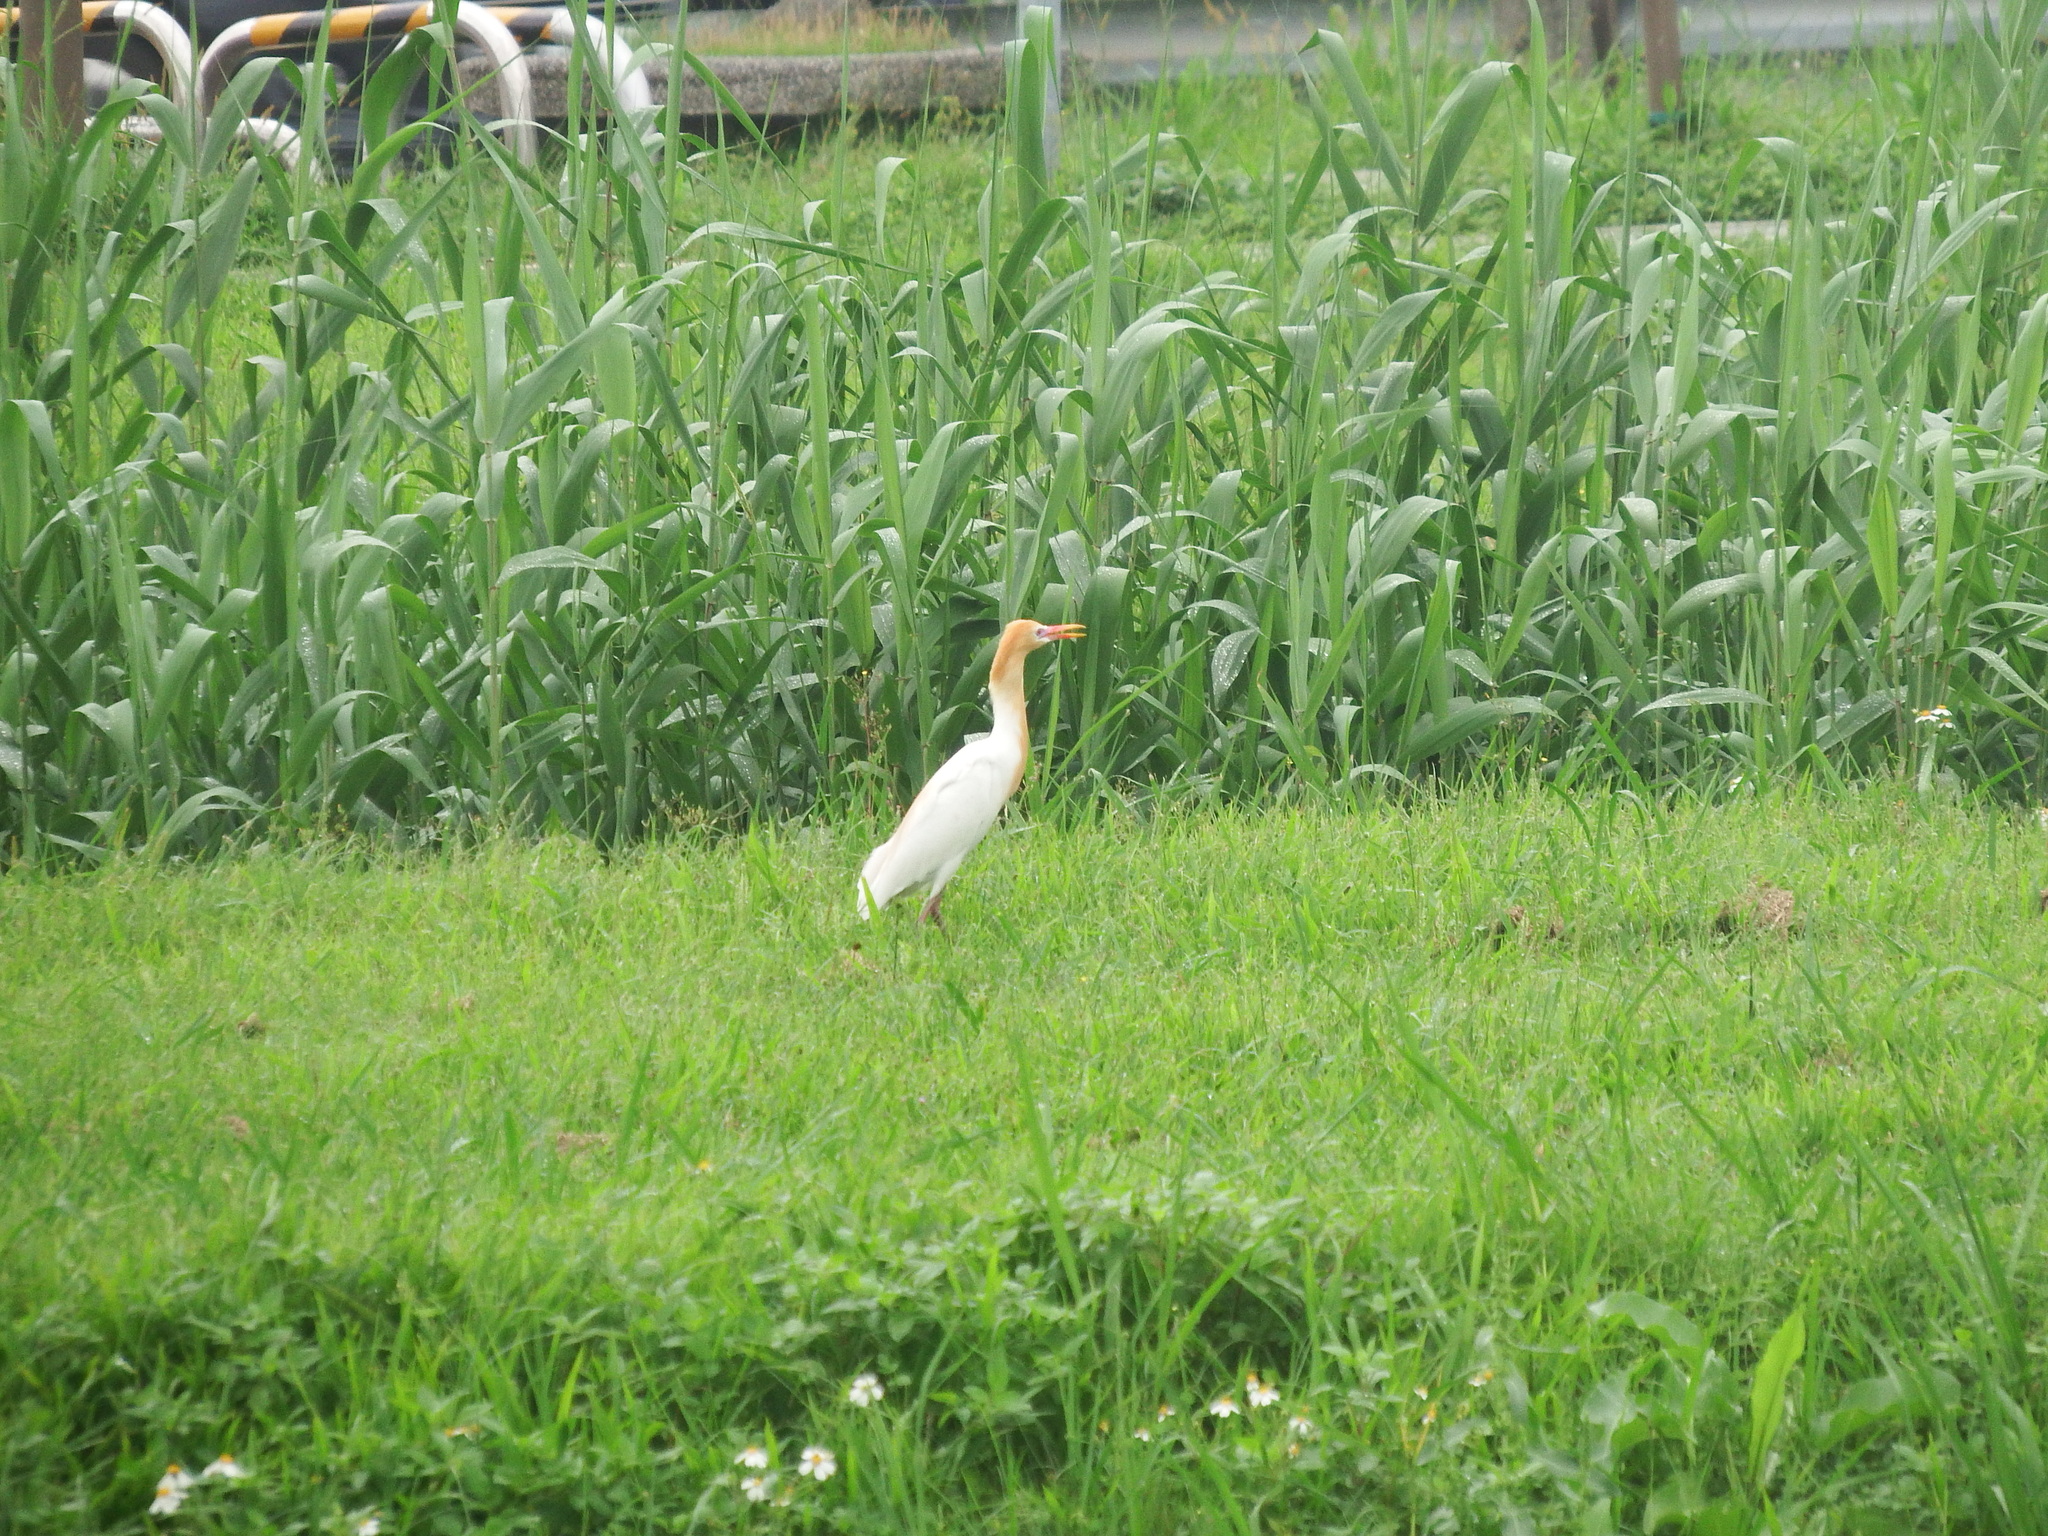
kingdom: Animalia
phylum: Chordata
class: Aves
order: Pelecaniformes
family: Ardeidae
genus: Bubulcus
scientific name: Bubulcus coromandus
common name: Eastern cattle egret
